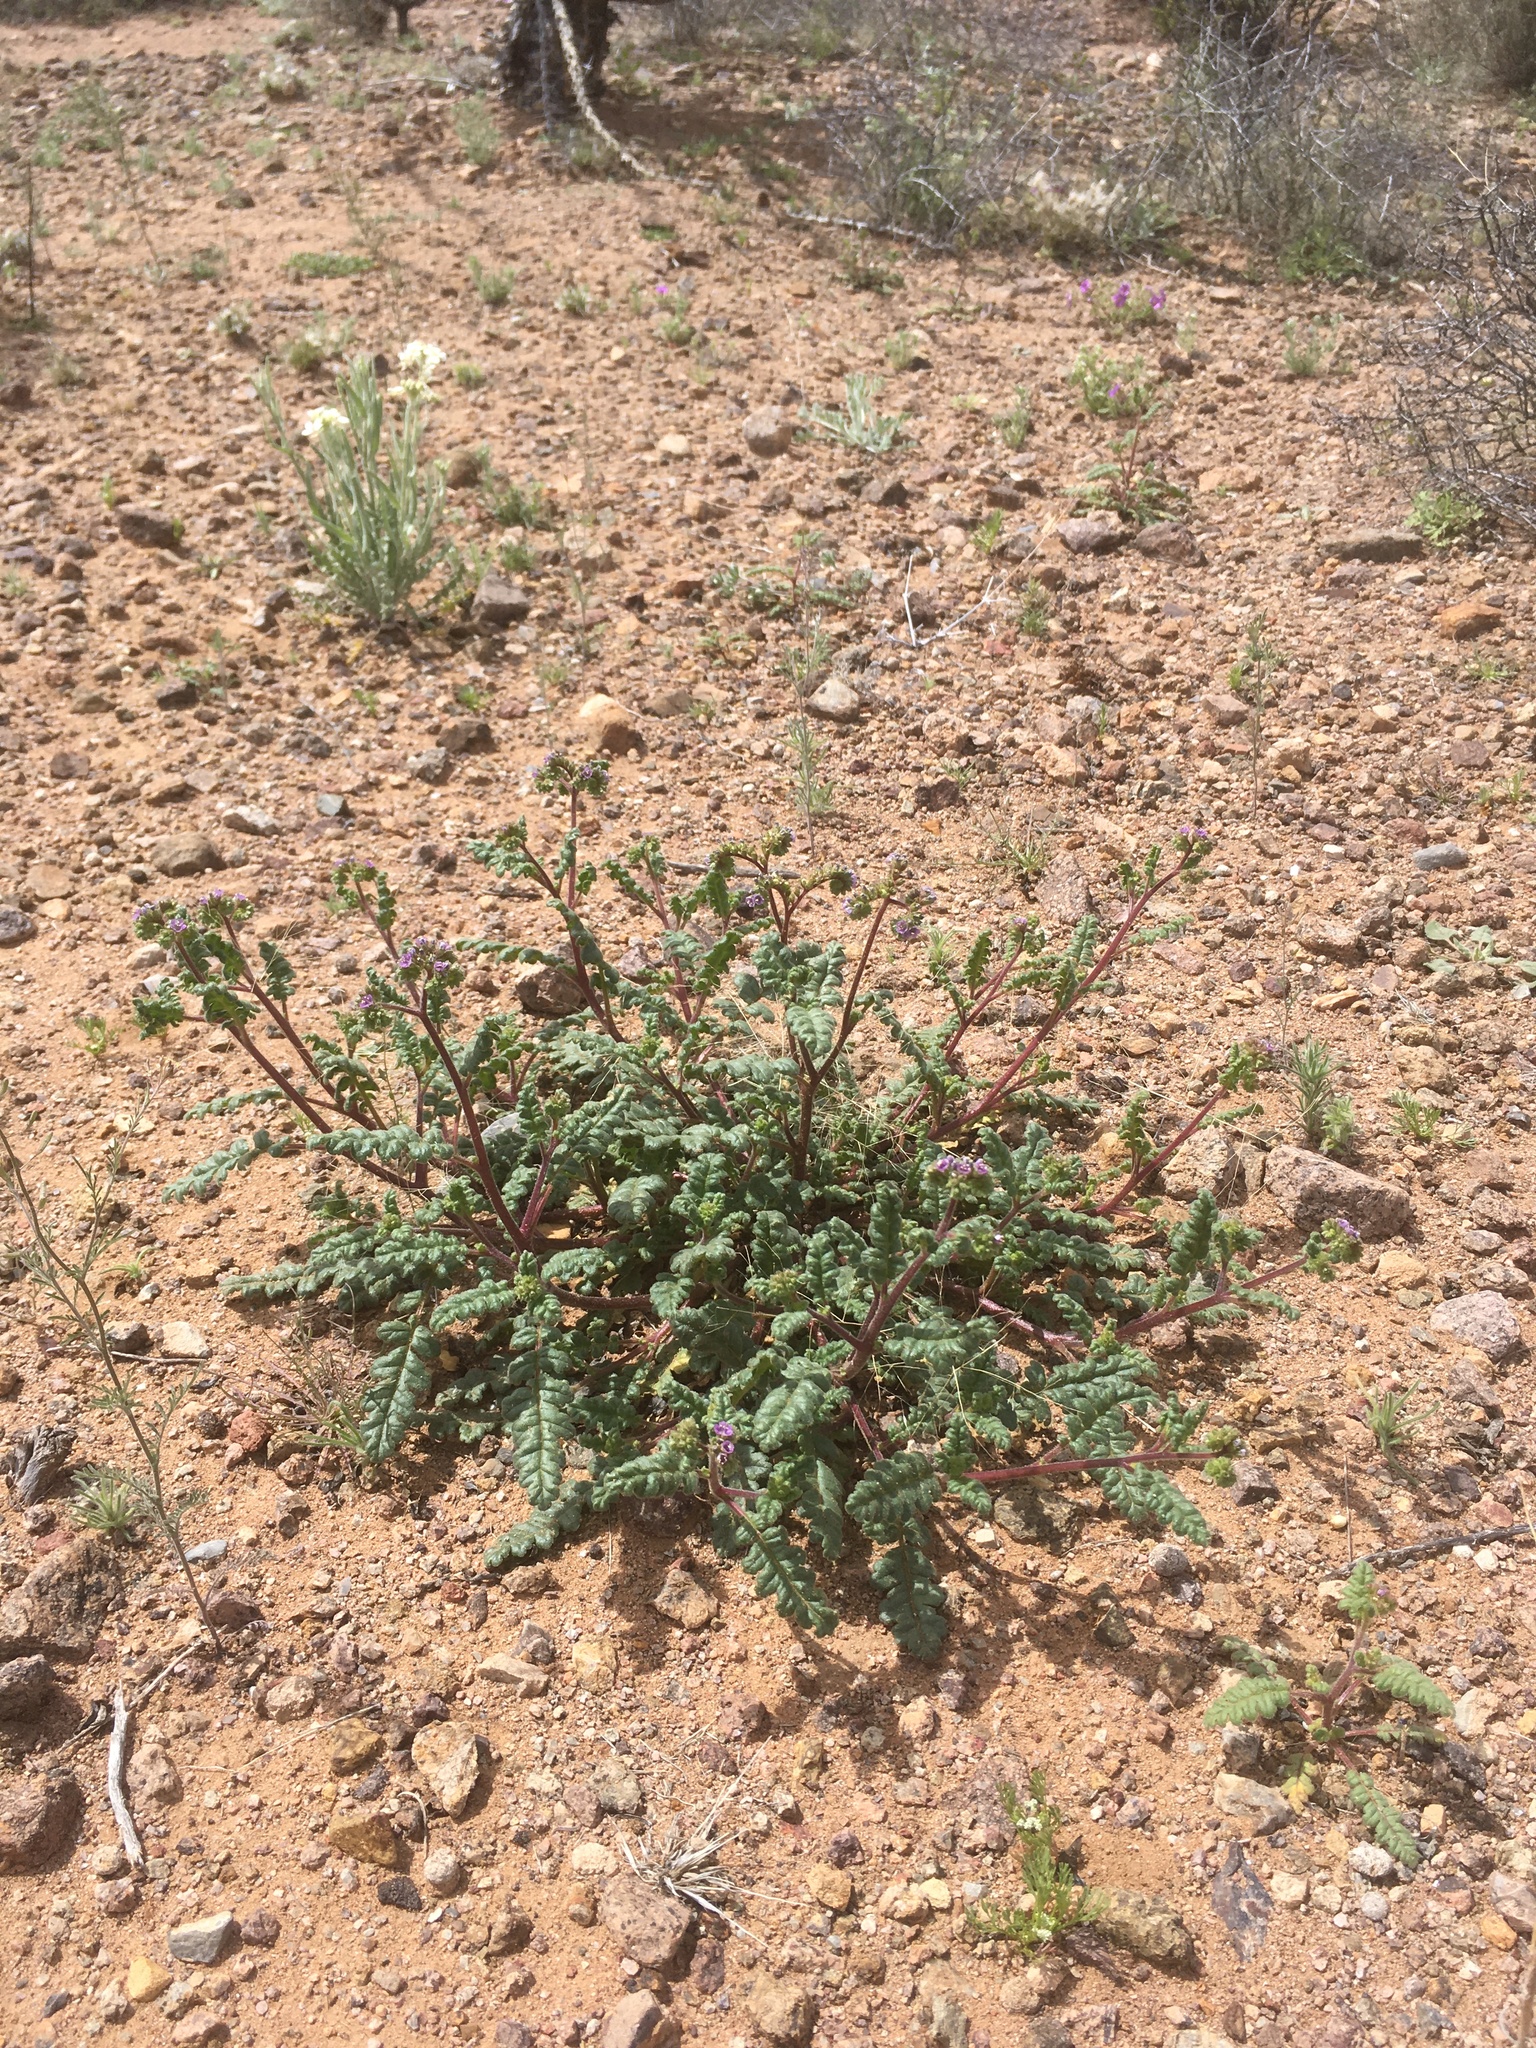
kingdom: Plantae
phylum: Tracheophyta
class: Magnoliopsida
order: Boraginales
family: Hydrophyllaceae
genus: Phacelia
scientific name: Phacelia coerulea
